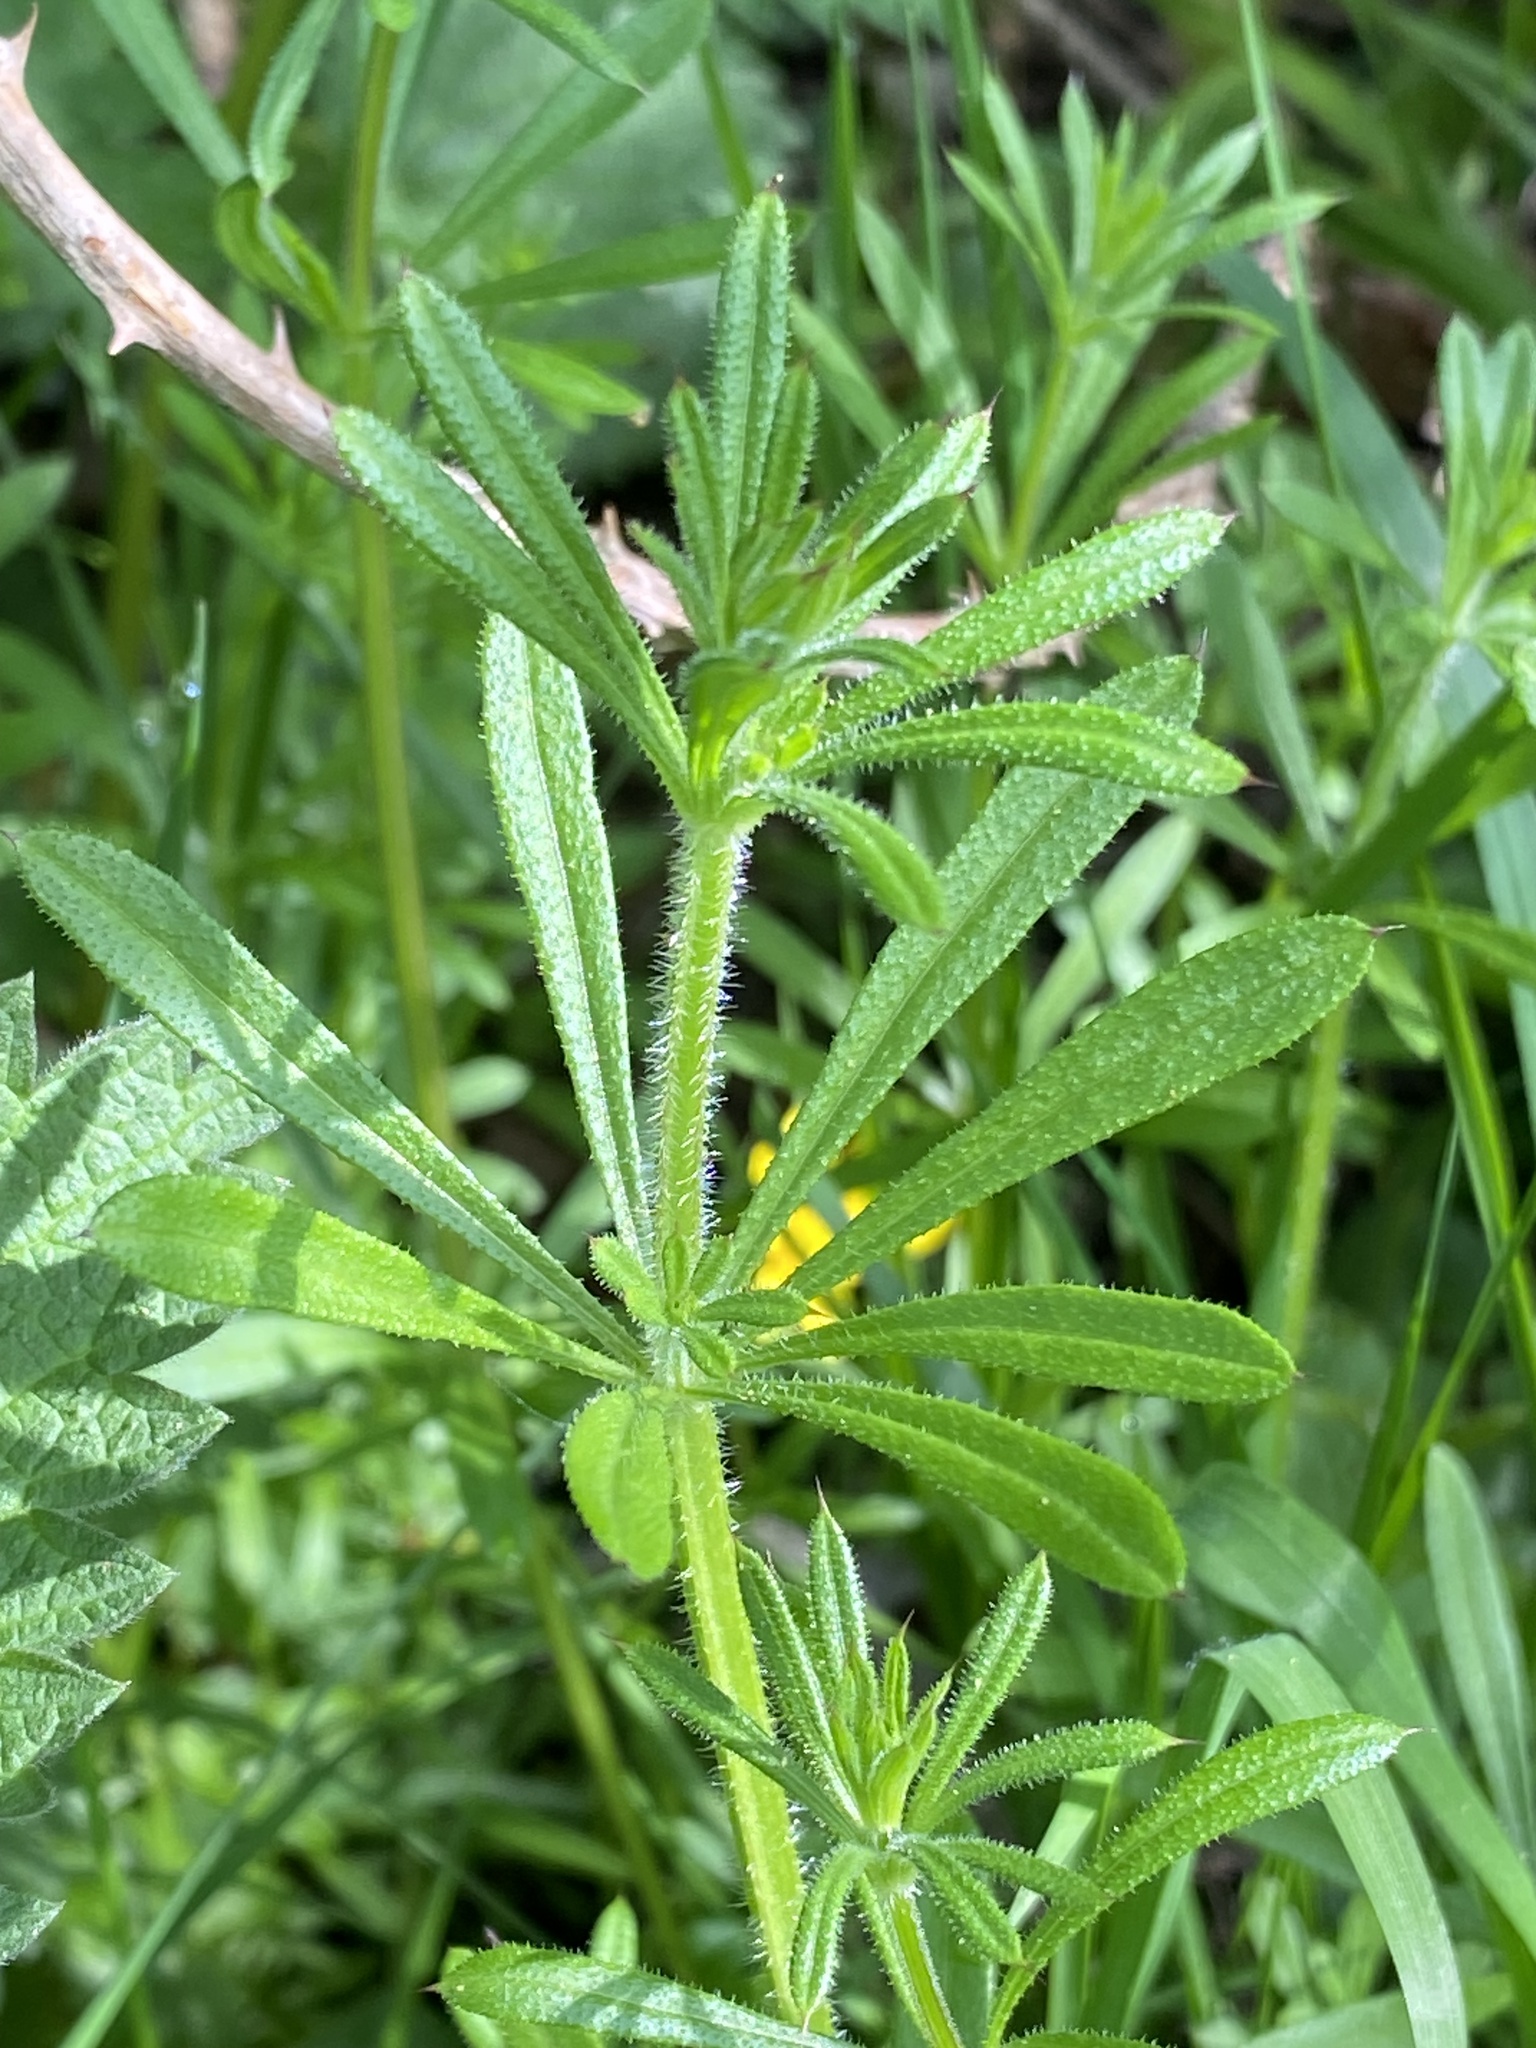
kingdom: Plantae
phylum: Tracheophyta
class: Magnoliopsida
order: Gentianales
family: Rubiaceae
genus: Galium
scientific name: Galium aparine
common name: Cleavers
